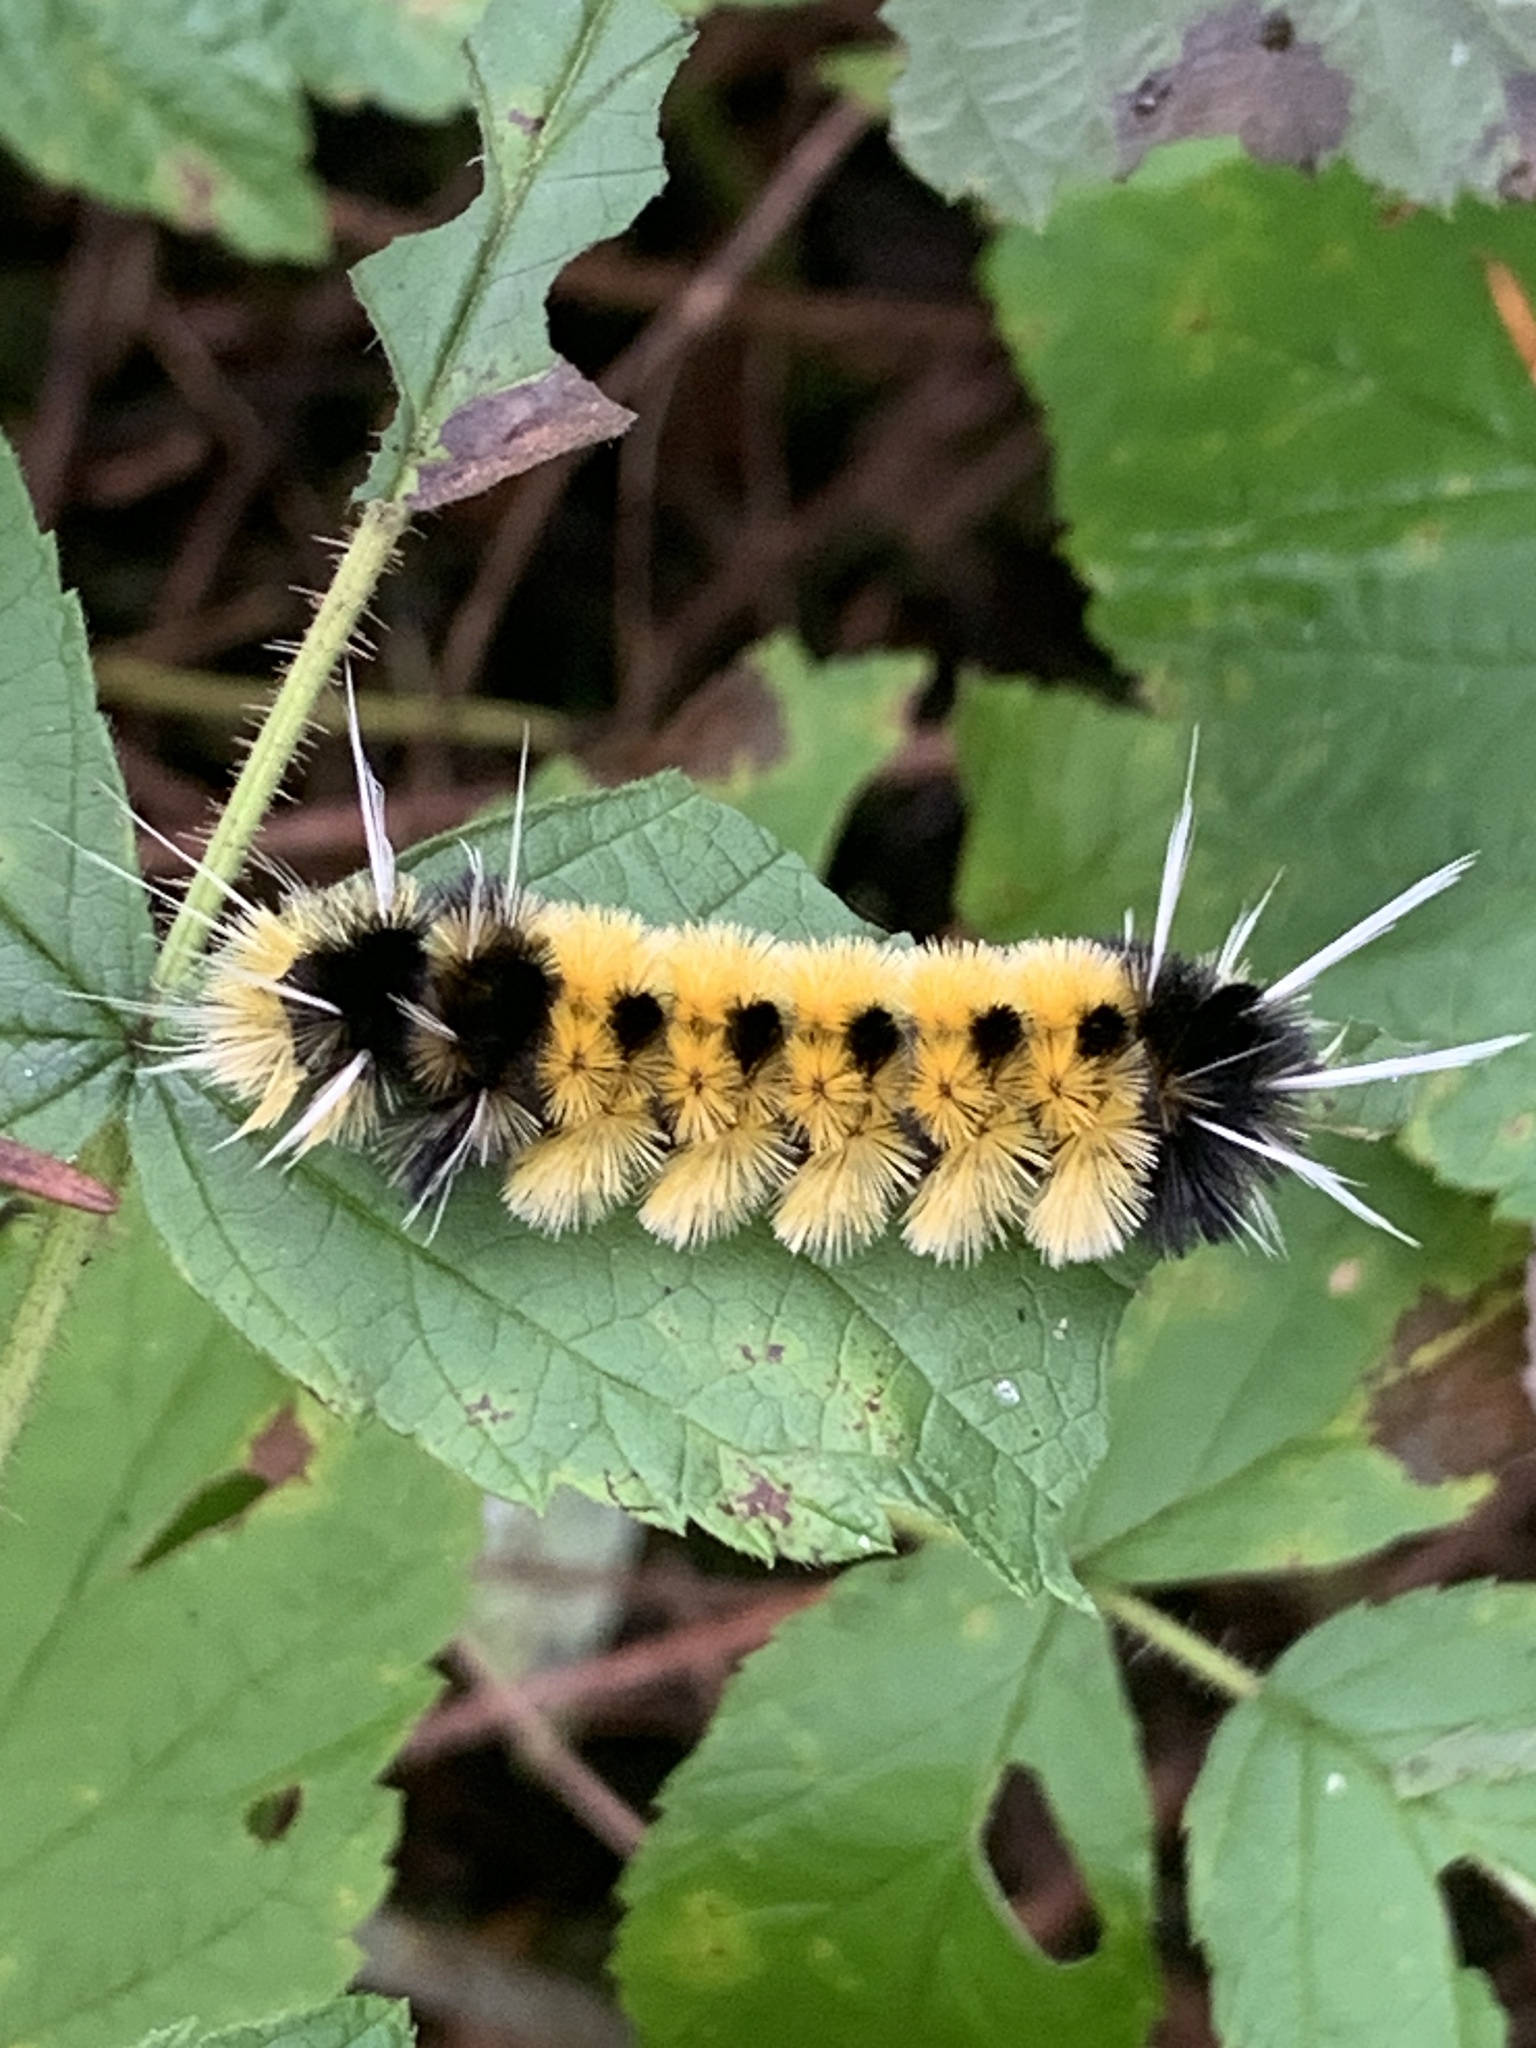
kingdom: Animalia
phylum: Arthropoda
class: Insecta
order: Lepidoptera
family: Erebidae
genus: Lophocampa
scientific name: Lophocampa maculata
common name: Spotted tussock moth
